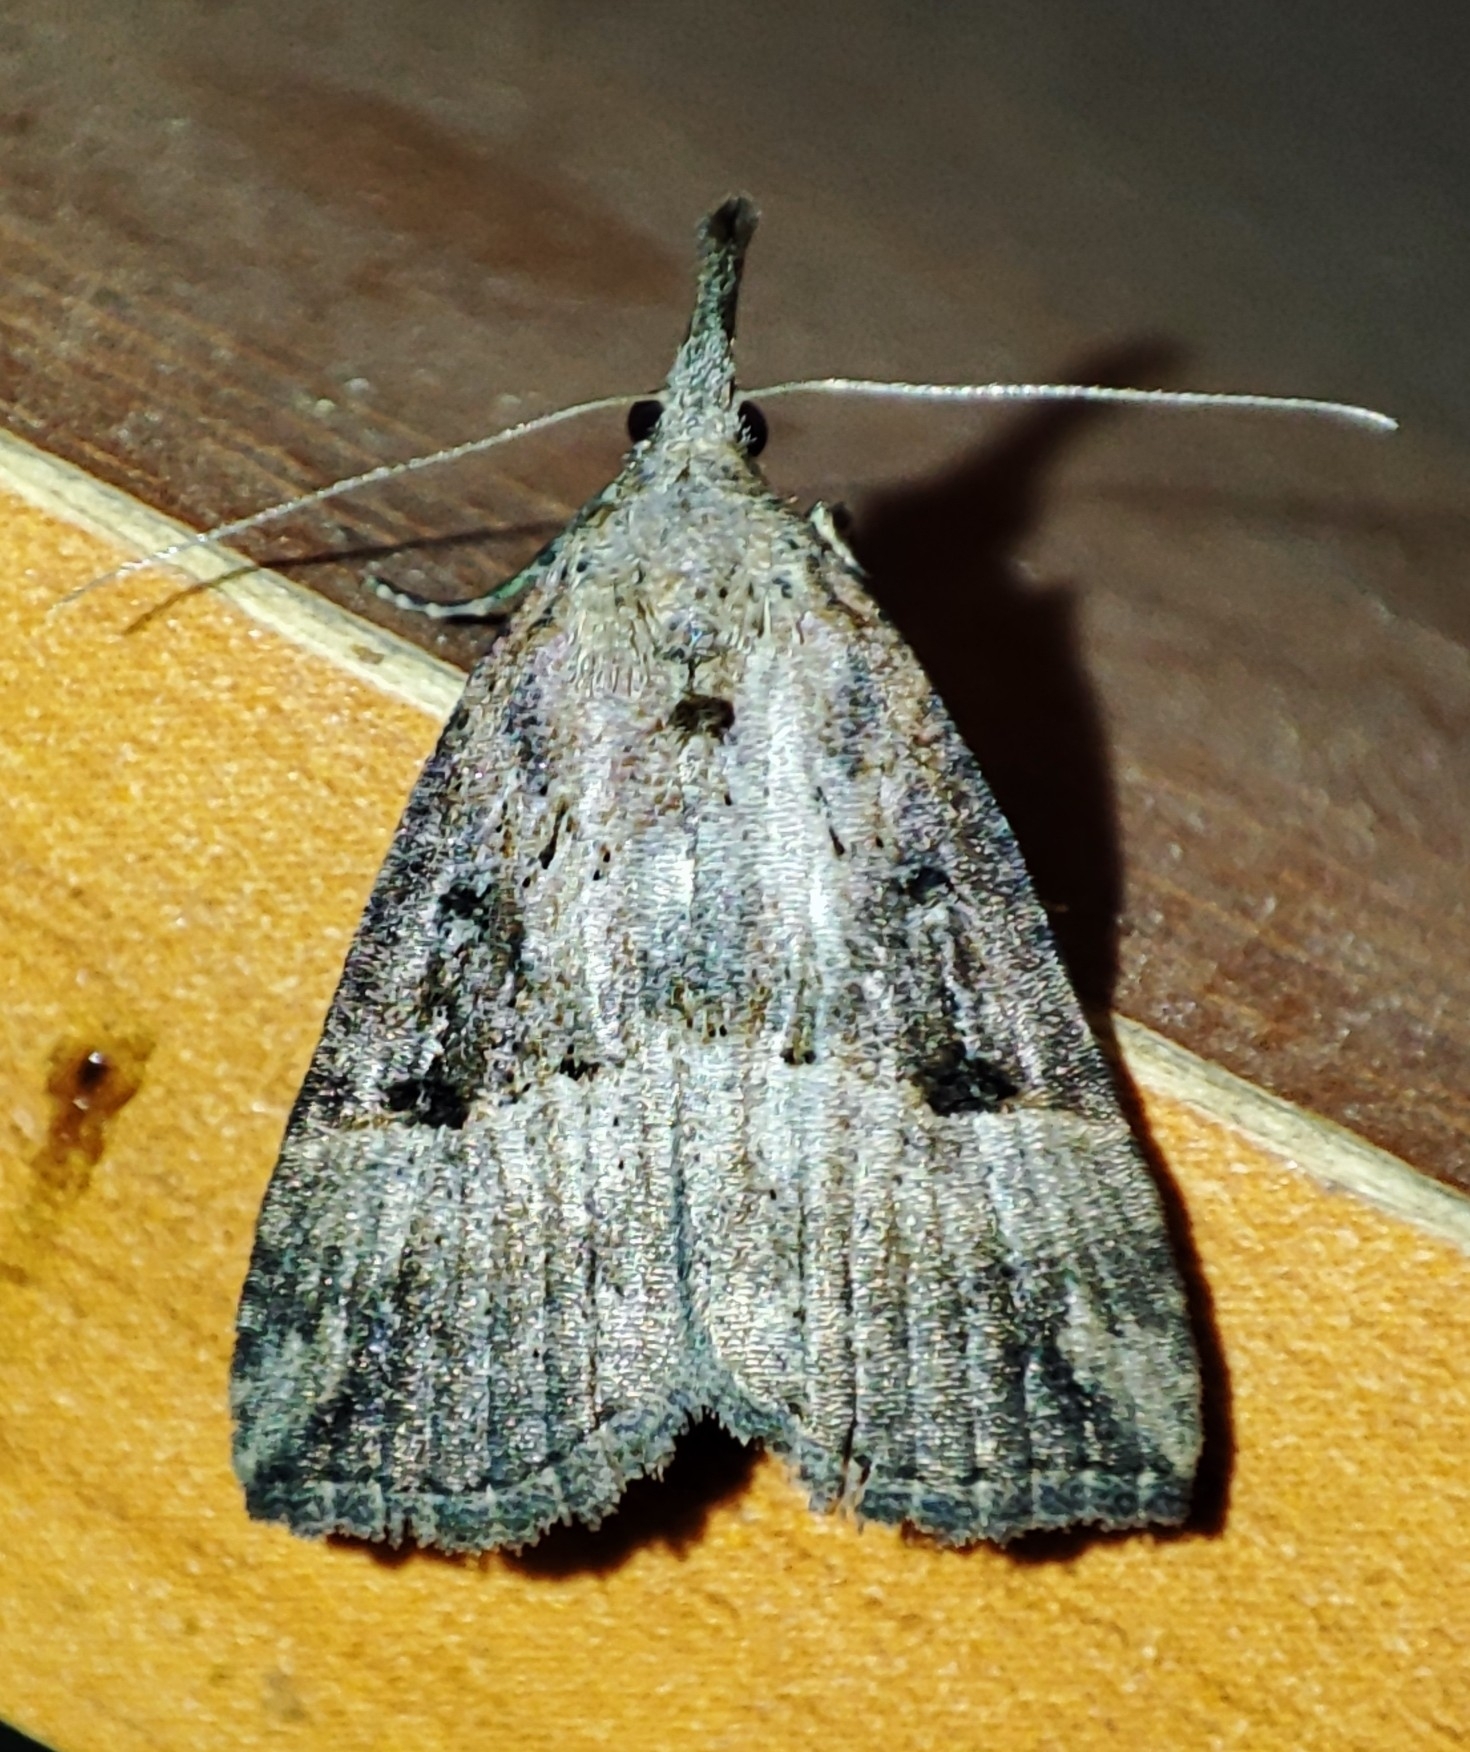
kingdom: Animalia
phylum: Arthropoda
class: Insecta
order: Lepidoptera
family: Erebidae
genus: Hypena
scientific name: Hypena rostralis
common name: Buttoned snout
